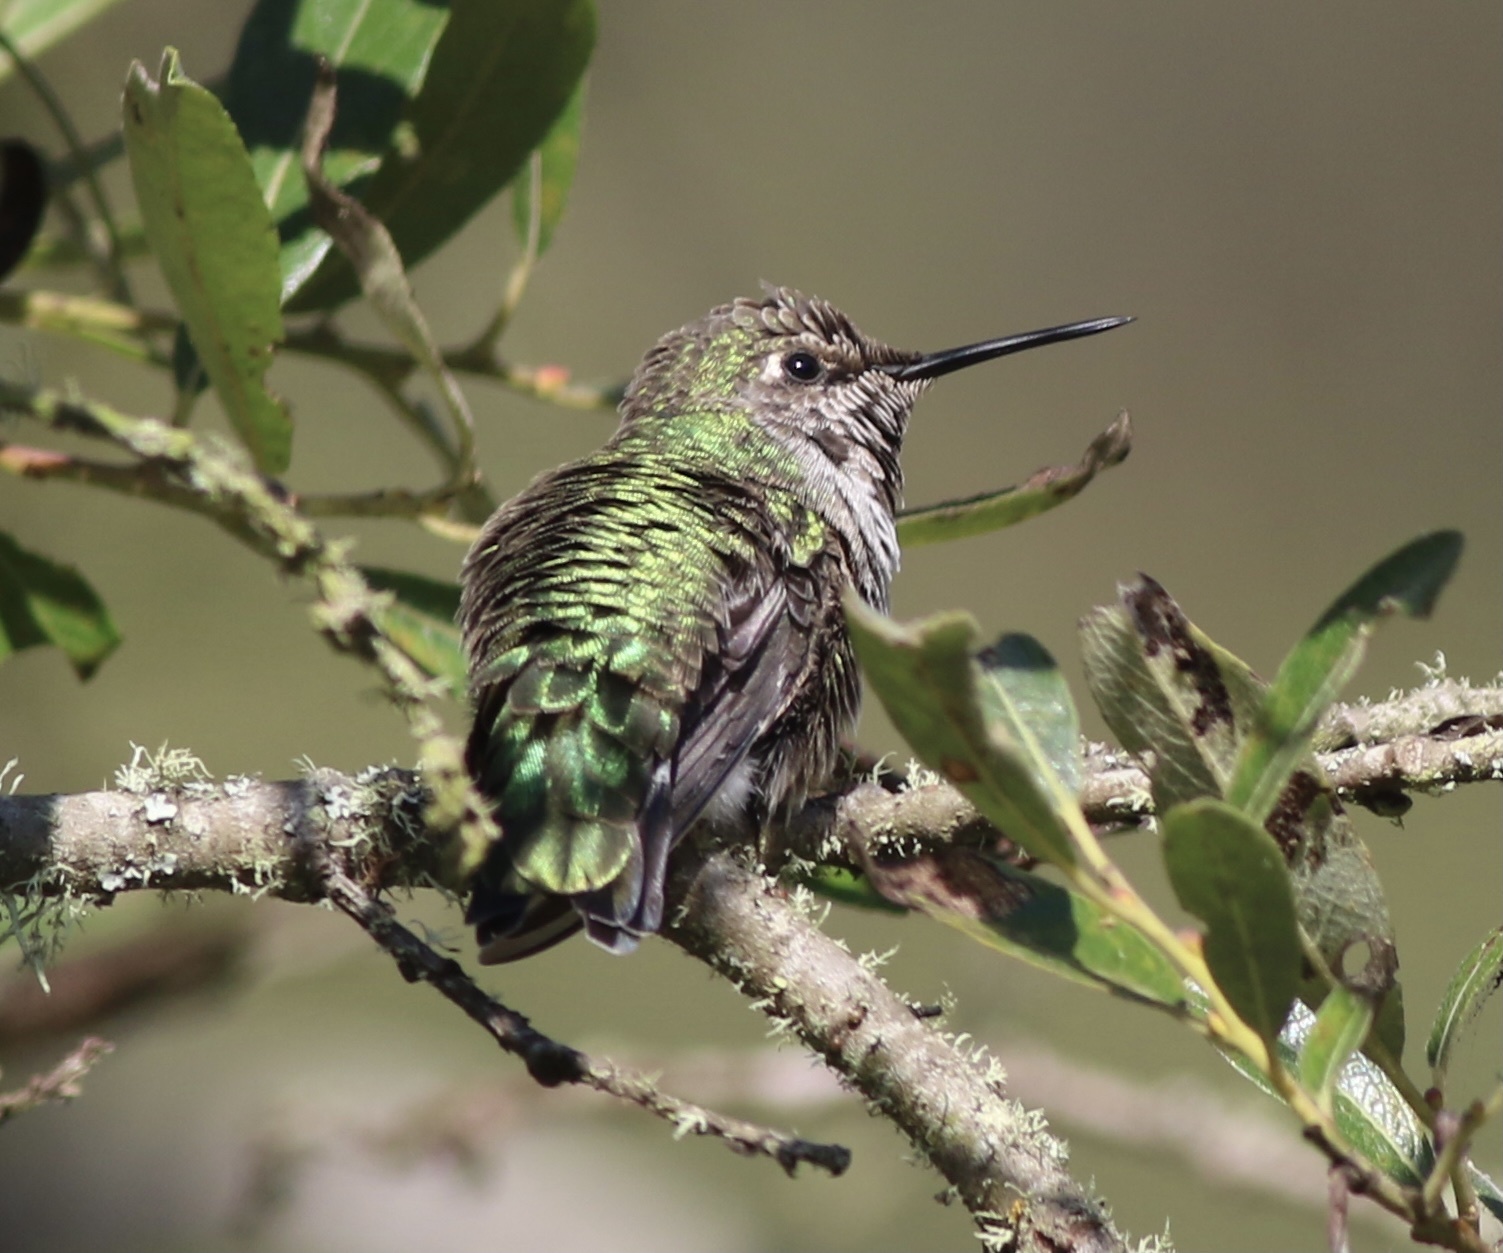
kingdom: Animalia
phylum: Chordata
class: Aves
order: Apodiformes
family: Trochilidae
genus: Calypte
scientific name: Calypte anna
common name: Anna's hummingbird
